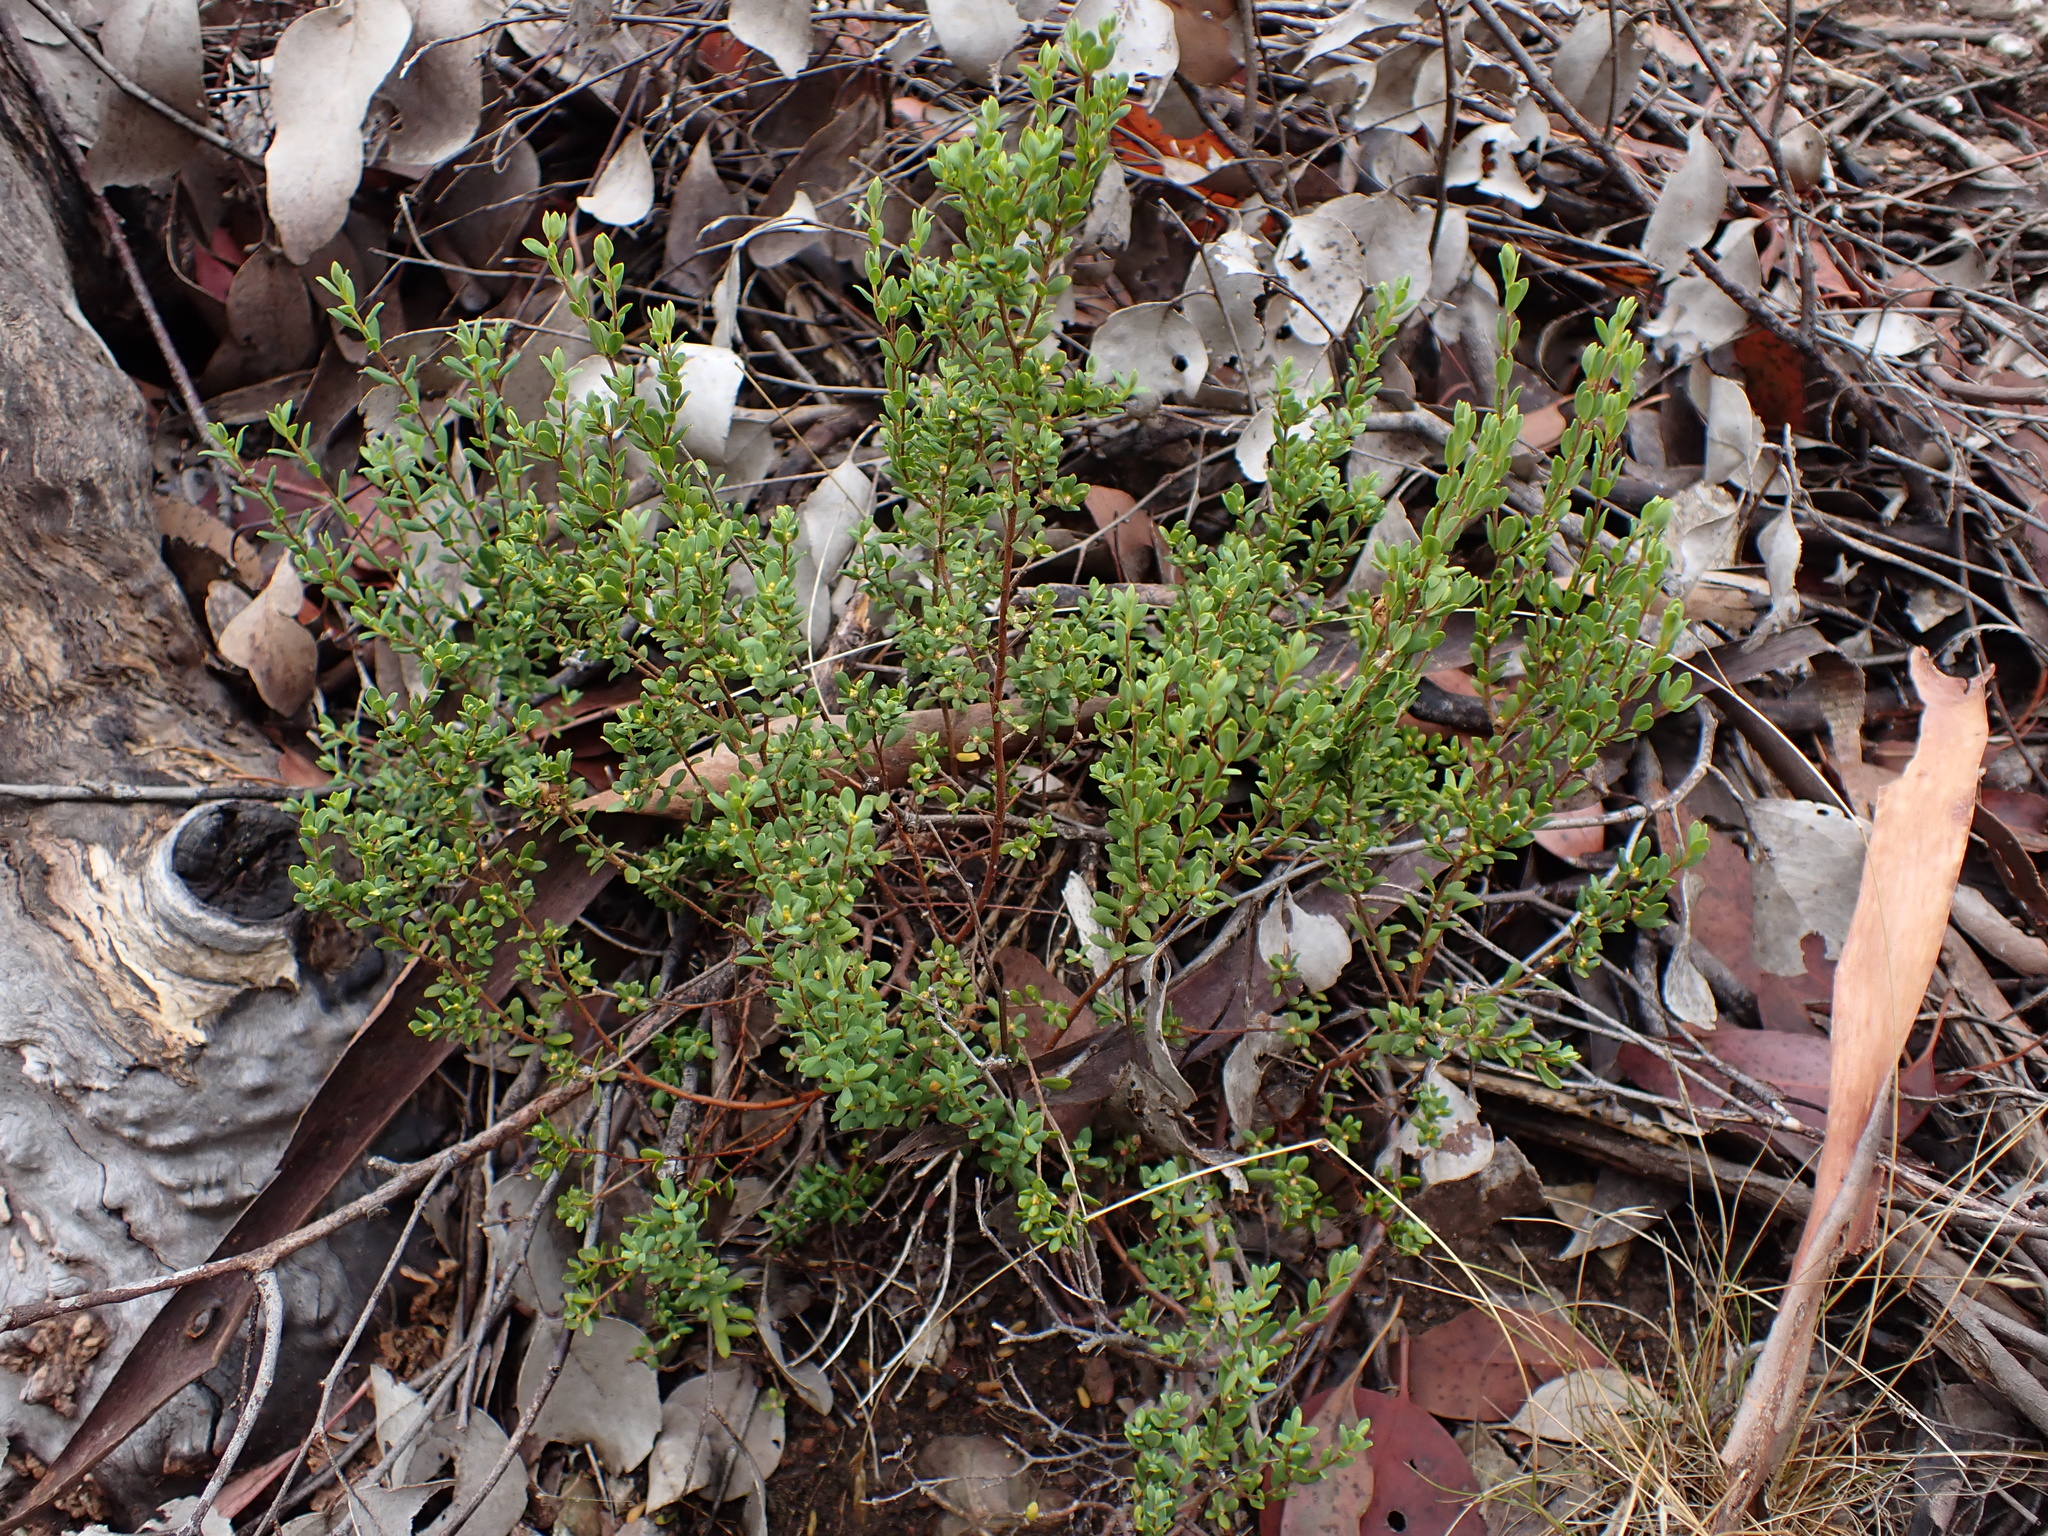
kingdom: Plantae
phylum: Tracheophyta
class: Magnoliopsida
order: Malvales
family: Thymelaeaceae
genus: Pimelea
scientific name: Pimelea hewardiana
